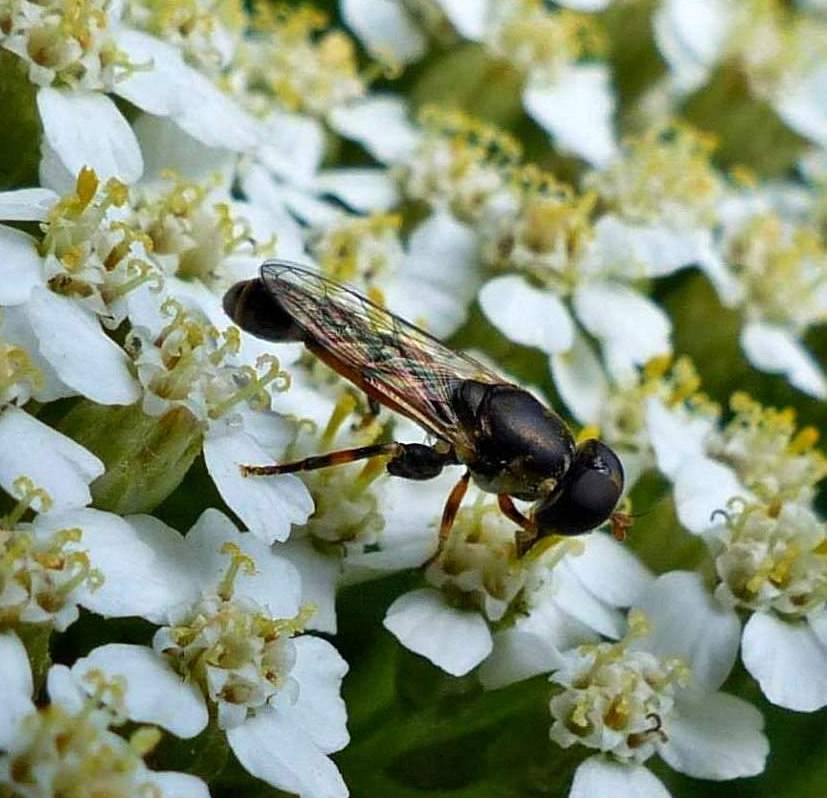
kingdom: Animalia
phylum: Arthropoda
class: Insecta
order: Diptera
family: Syrphidae
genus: Syritta
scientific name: Syritta pipiens
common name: Hover fly
